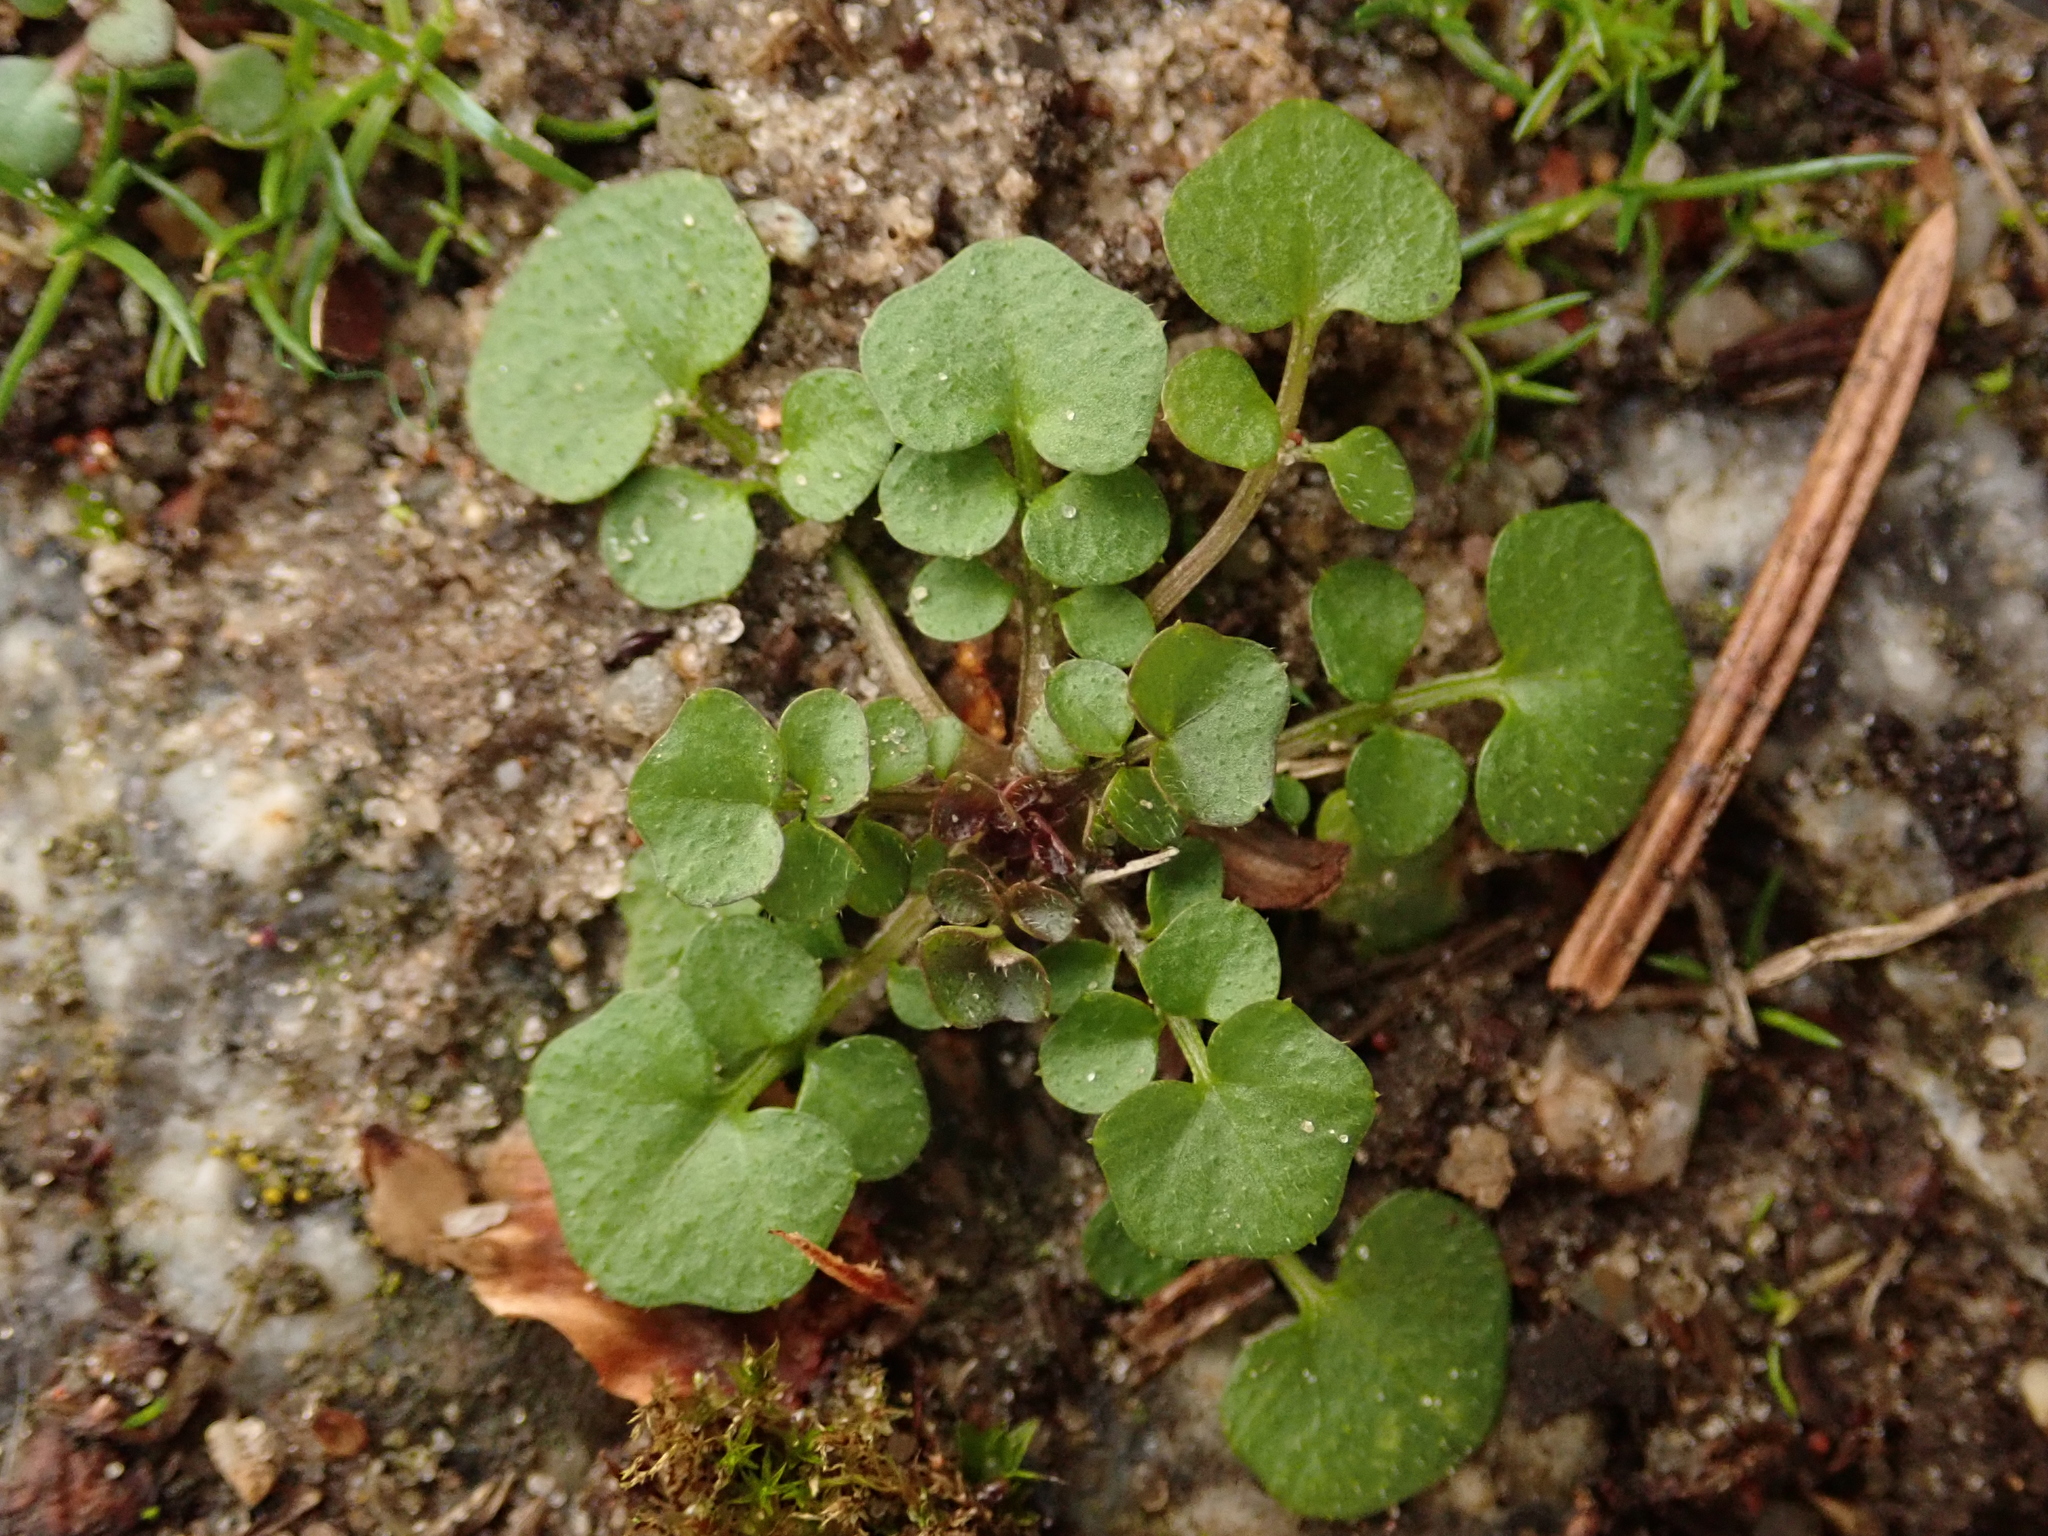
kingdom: Plantae
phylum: Tracheophyta
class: Magnoliopsida
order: Brassicales
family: Brassicaceae
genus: Cardamine
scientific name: Cardamine hirsuta
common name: Hairy bittercress
